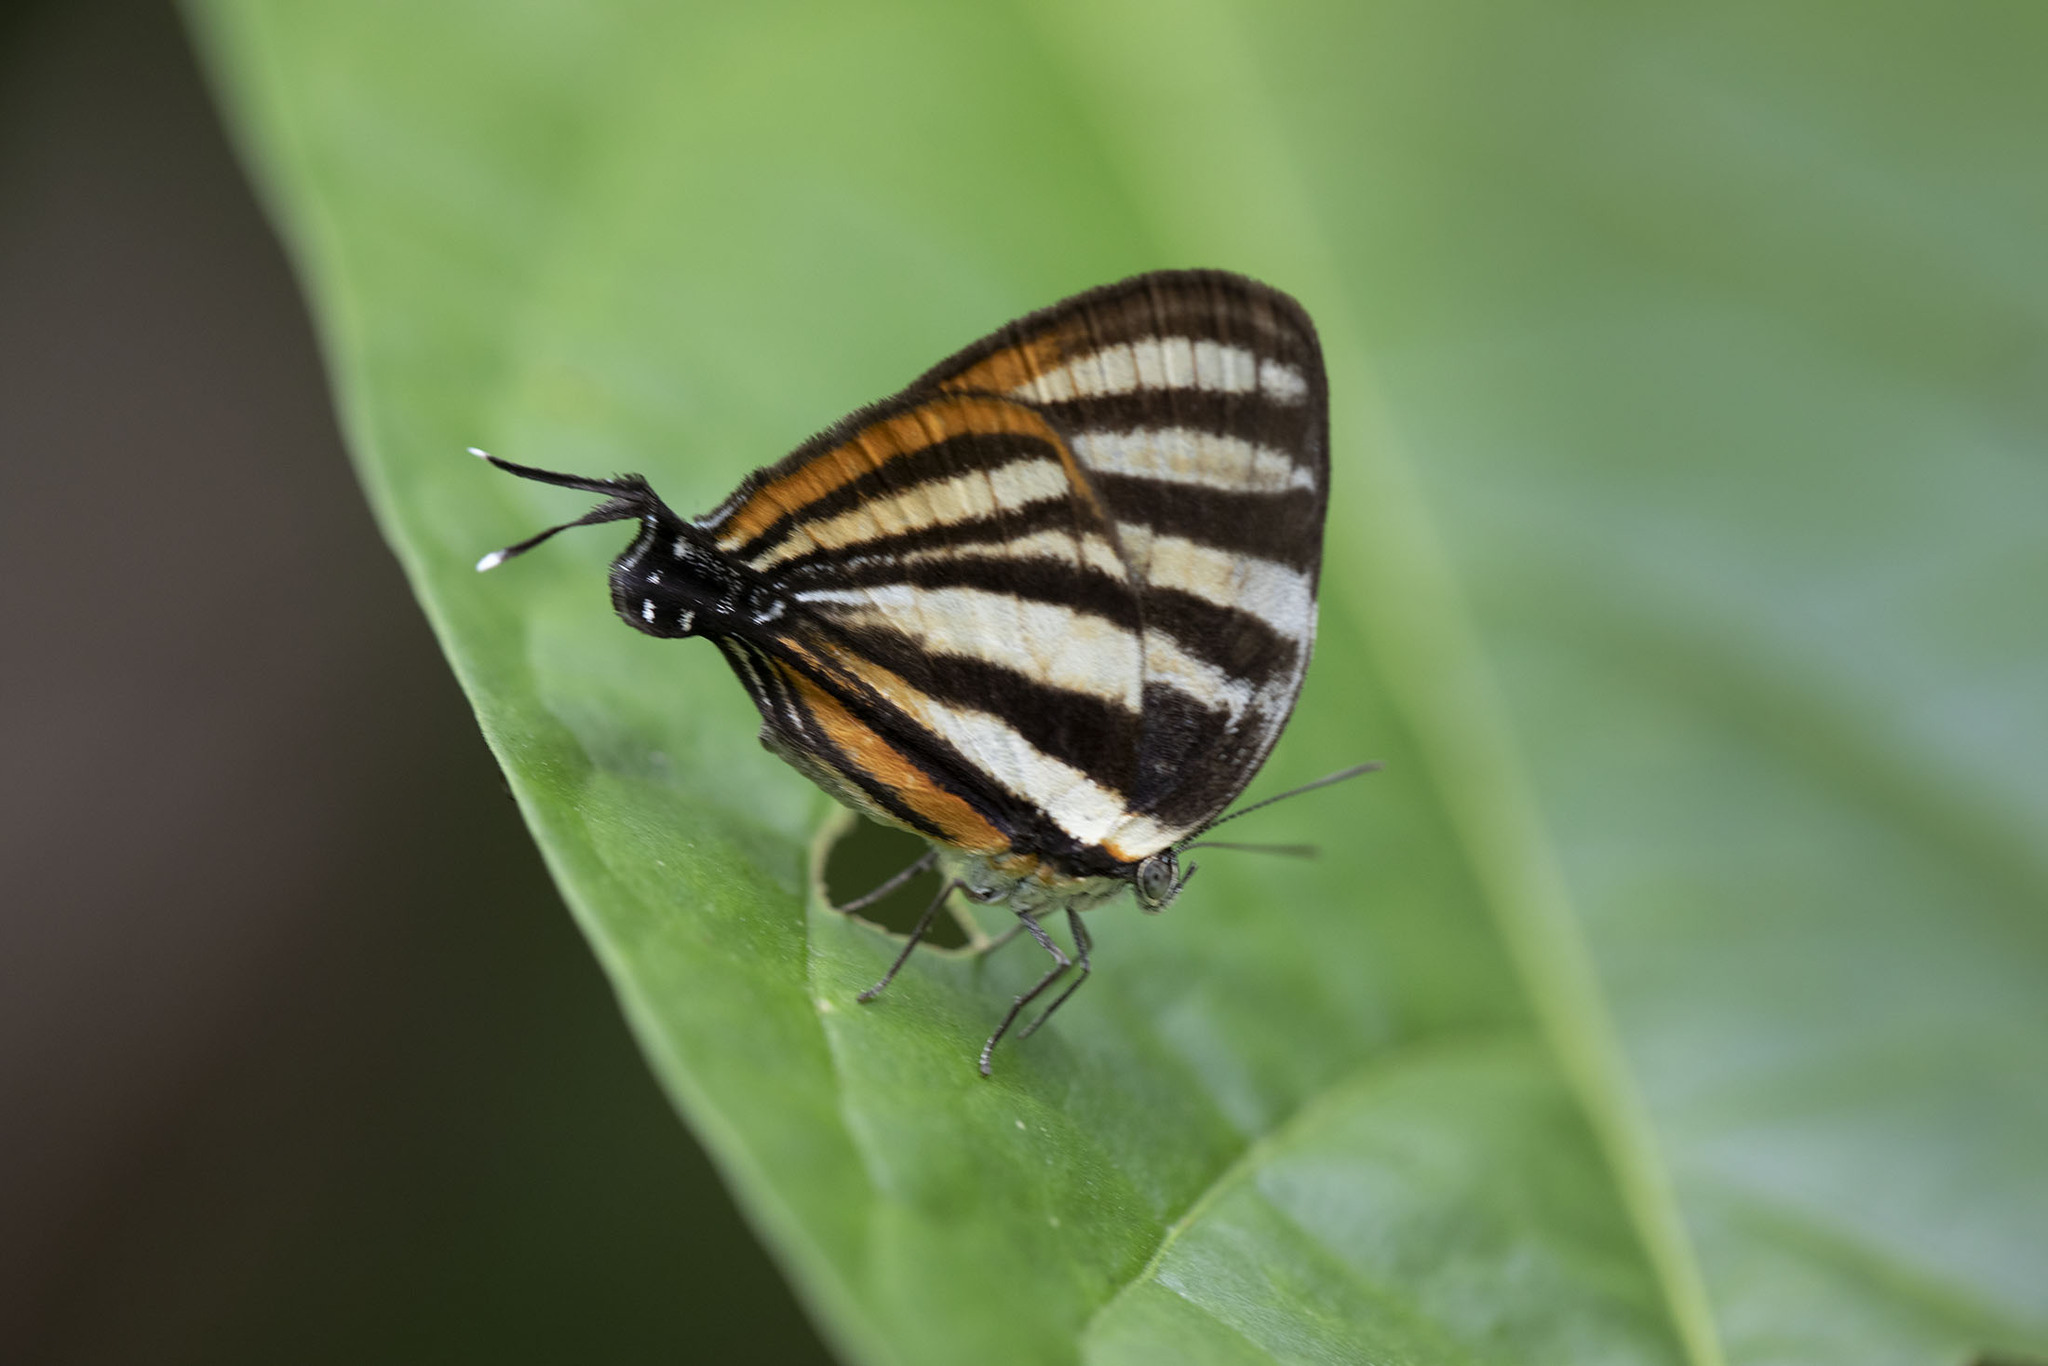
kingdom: Animalia
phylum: Arthropoda
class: Insecta
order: Lepidoptera
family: Lycaenidae
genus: Thecla
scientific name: Thecla aetolus
